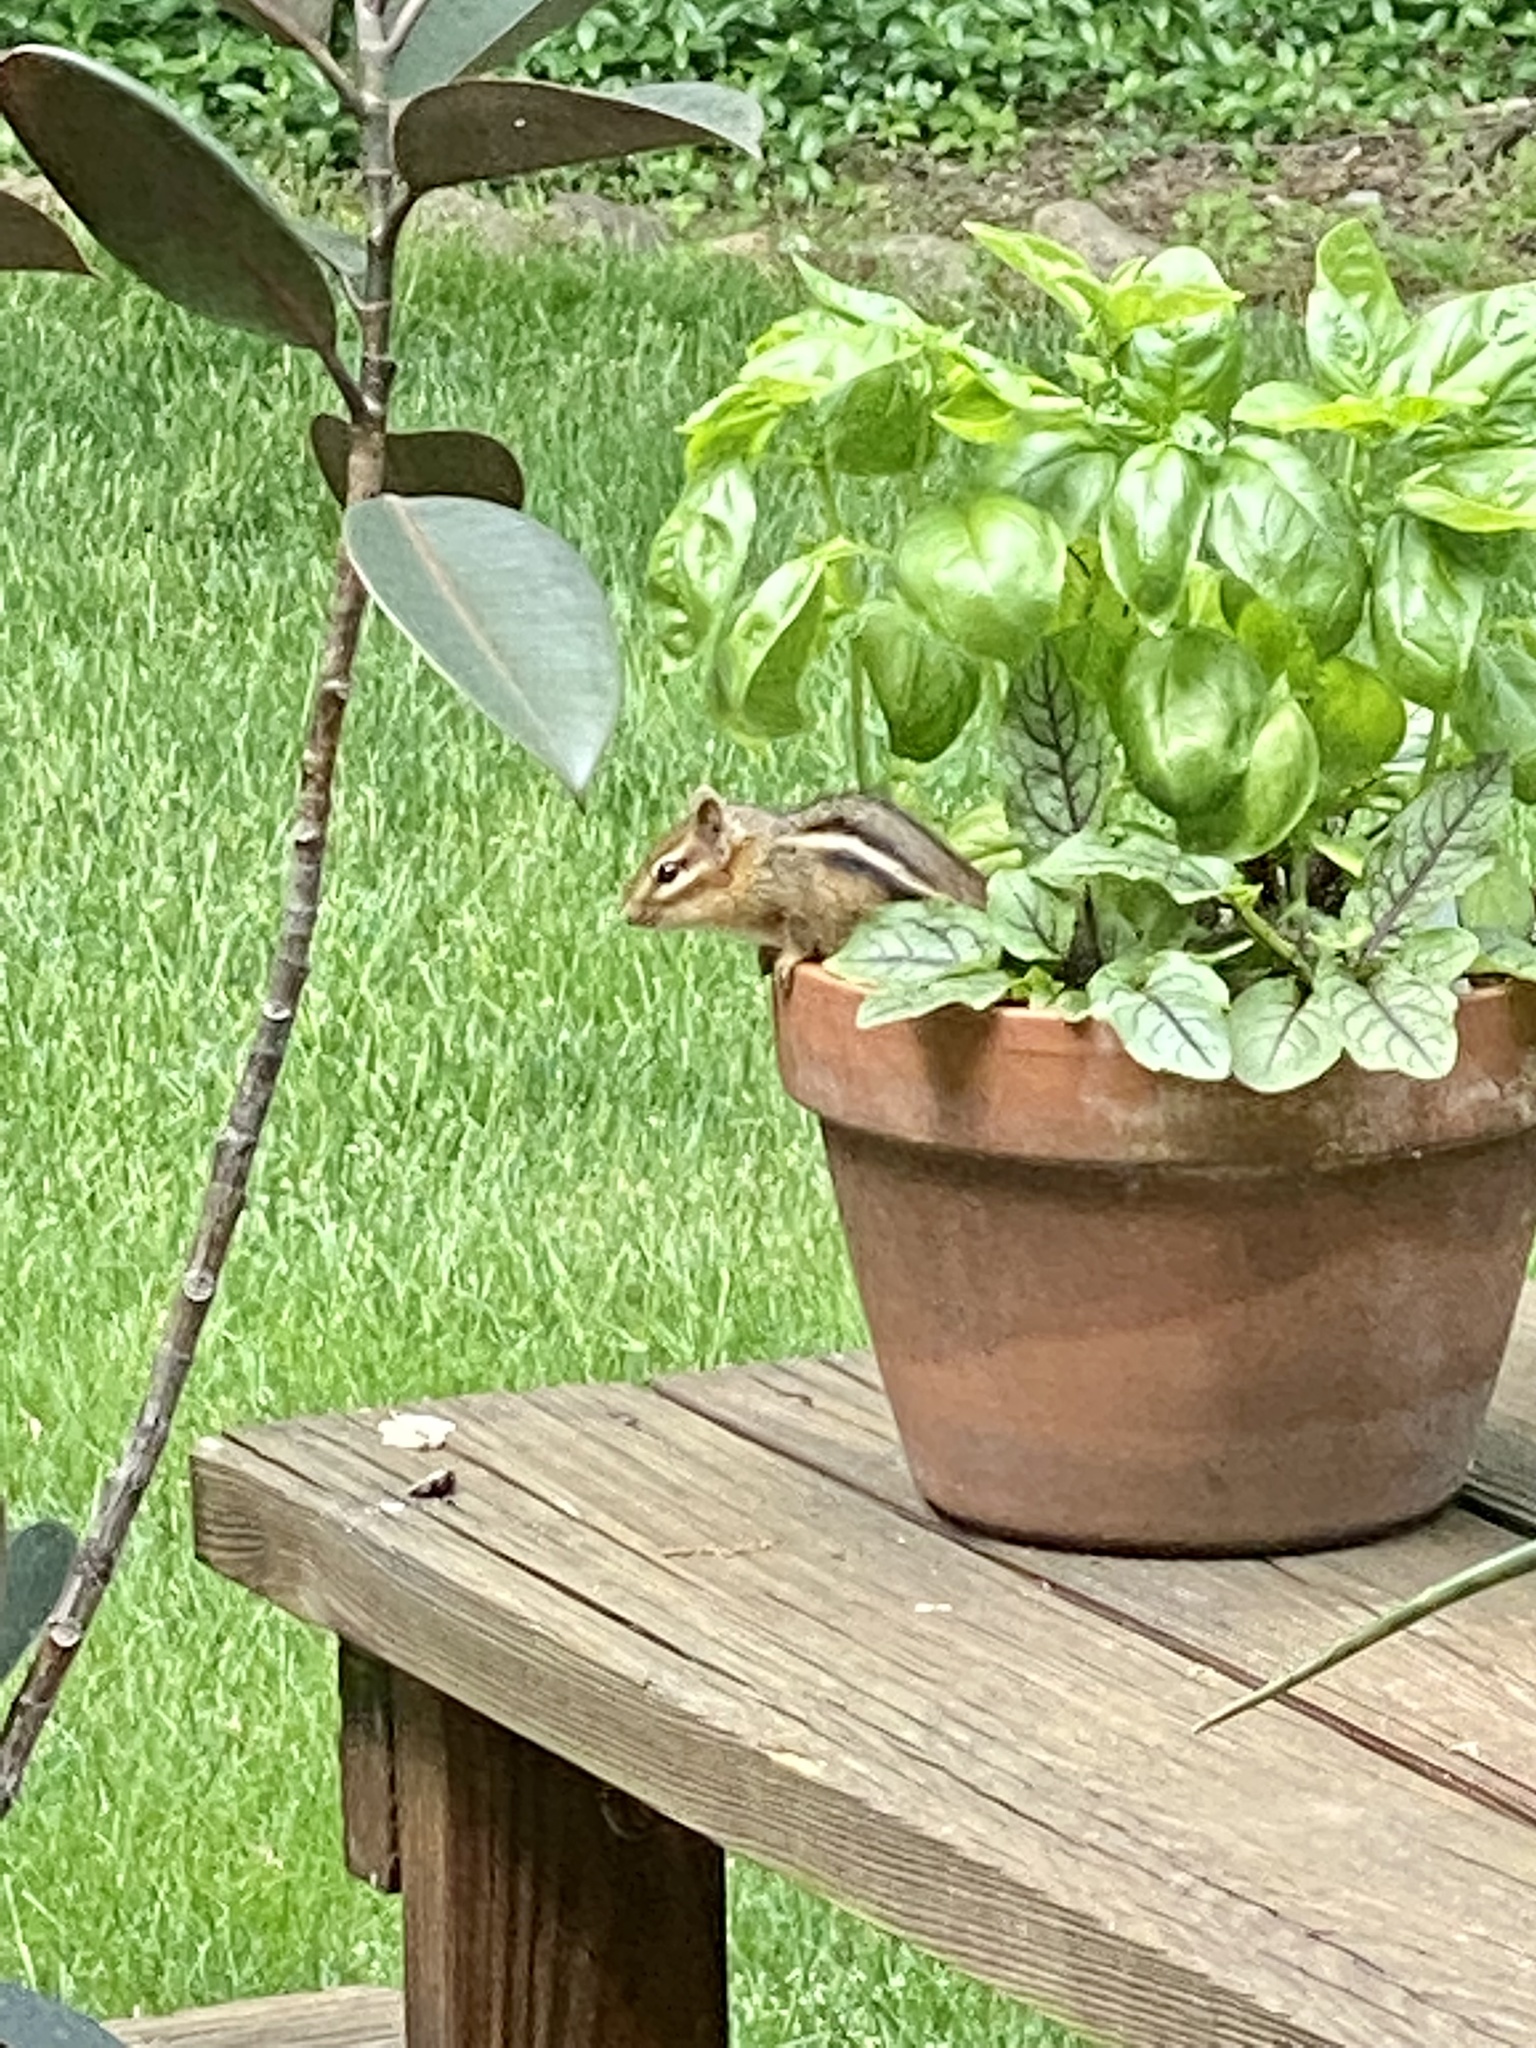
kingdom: Animalia
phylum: Chordata
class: Mammalia
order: Rodentia
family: Sciuridae
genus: Tamias
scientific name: Tamias striatus
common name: Eastern chipmunk
